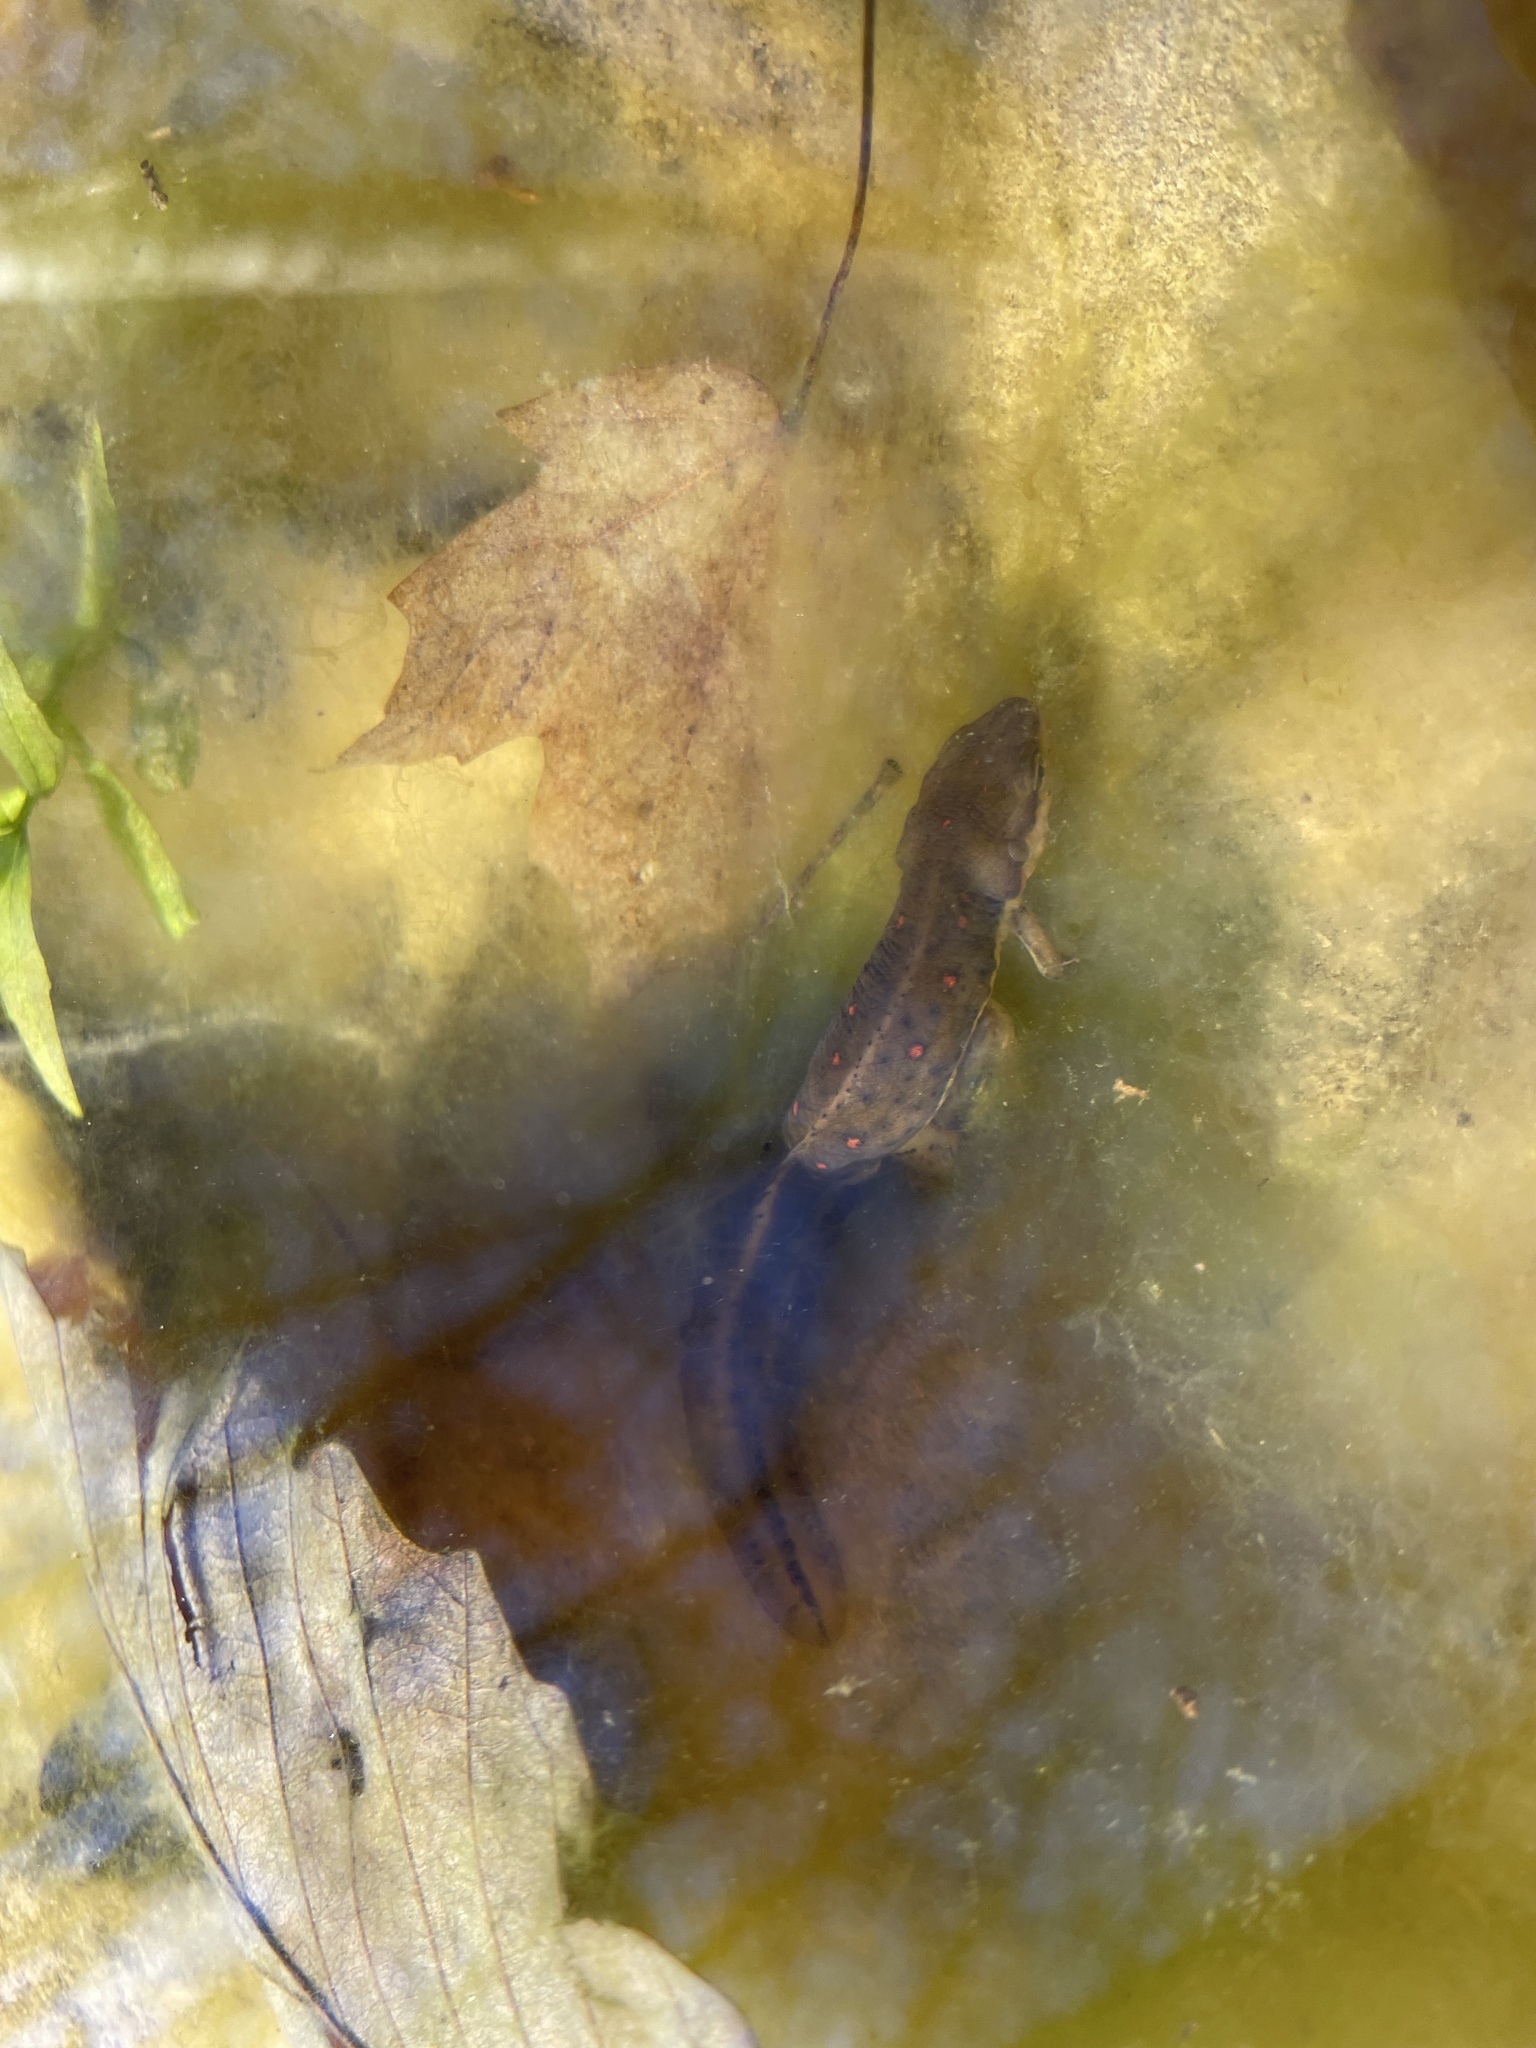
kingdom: Animalia
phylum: Chordata
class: Amphibia
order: Caudata
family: Salamandridae
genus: Notophthalmus
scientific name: Notophthalmus viridescens
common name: Eastern newt
